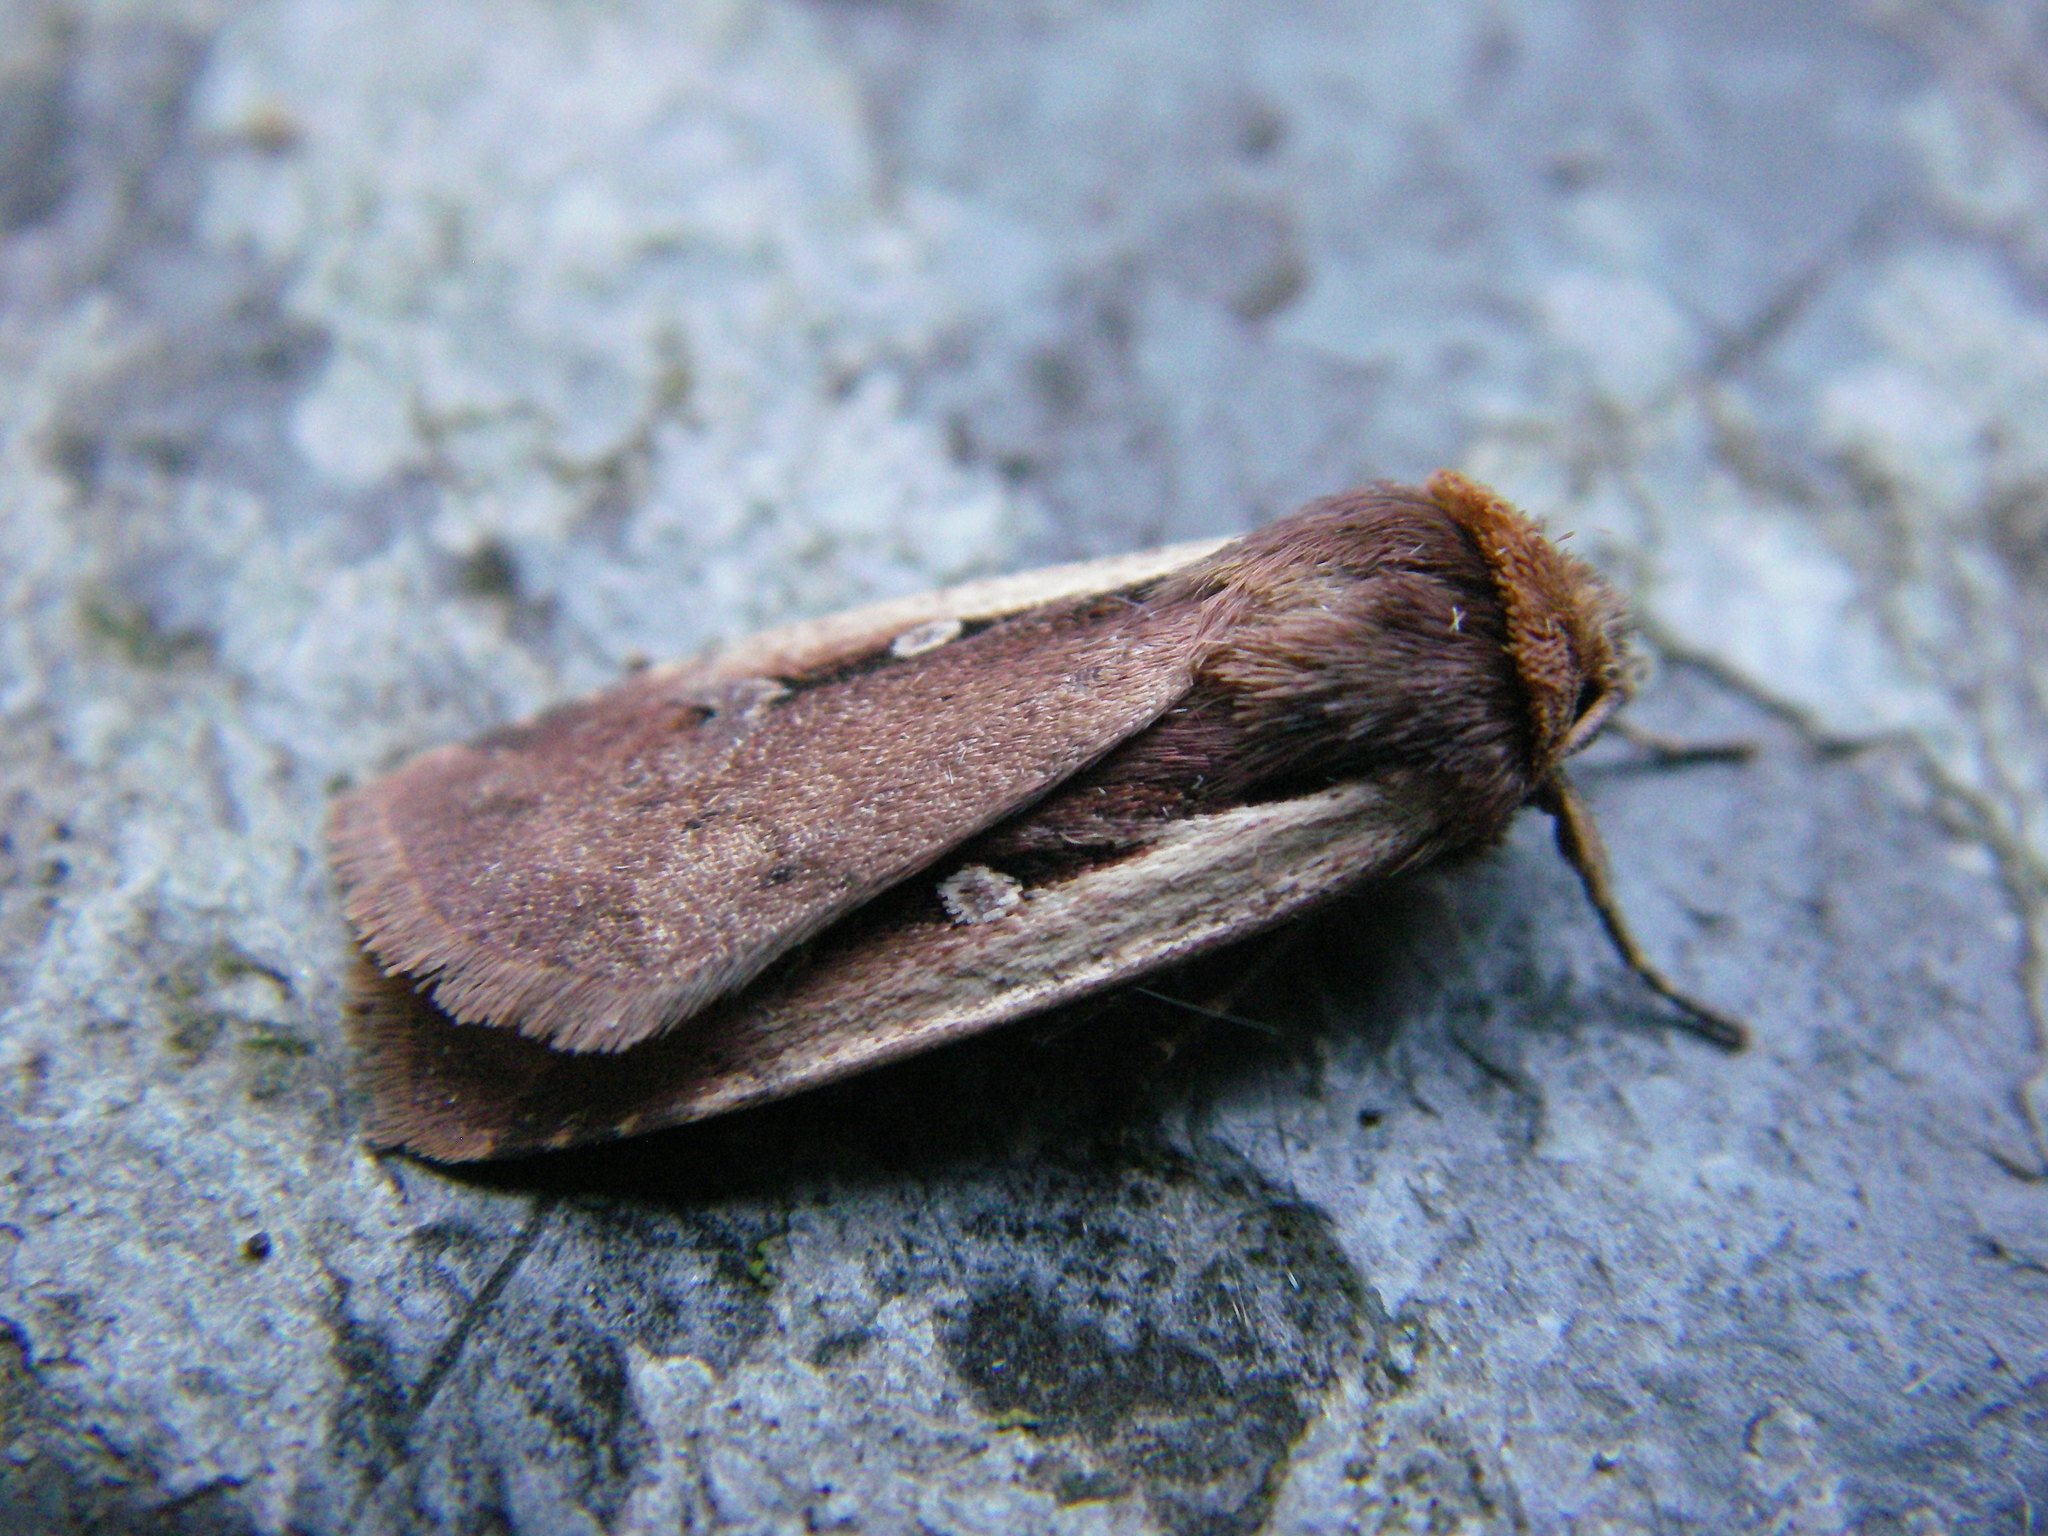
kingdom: Animalia
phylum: Arthropoda
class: Insecta
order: Lepidoptera
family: Noctuidae
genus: Ochropleura
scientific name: Ochropleura plecta
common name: Flame shoulder
